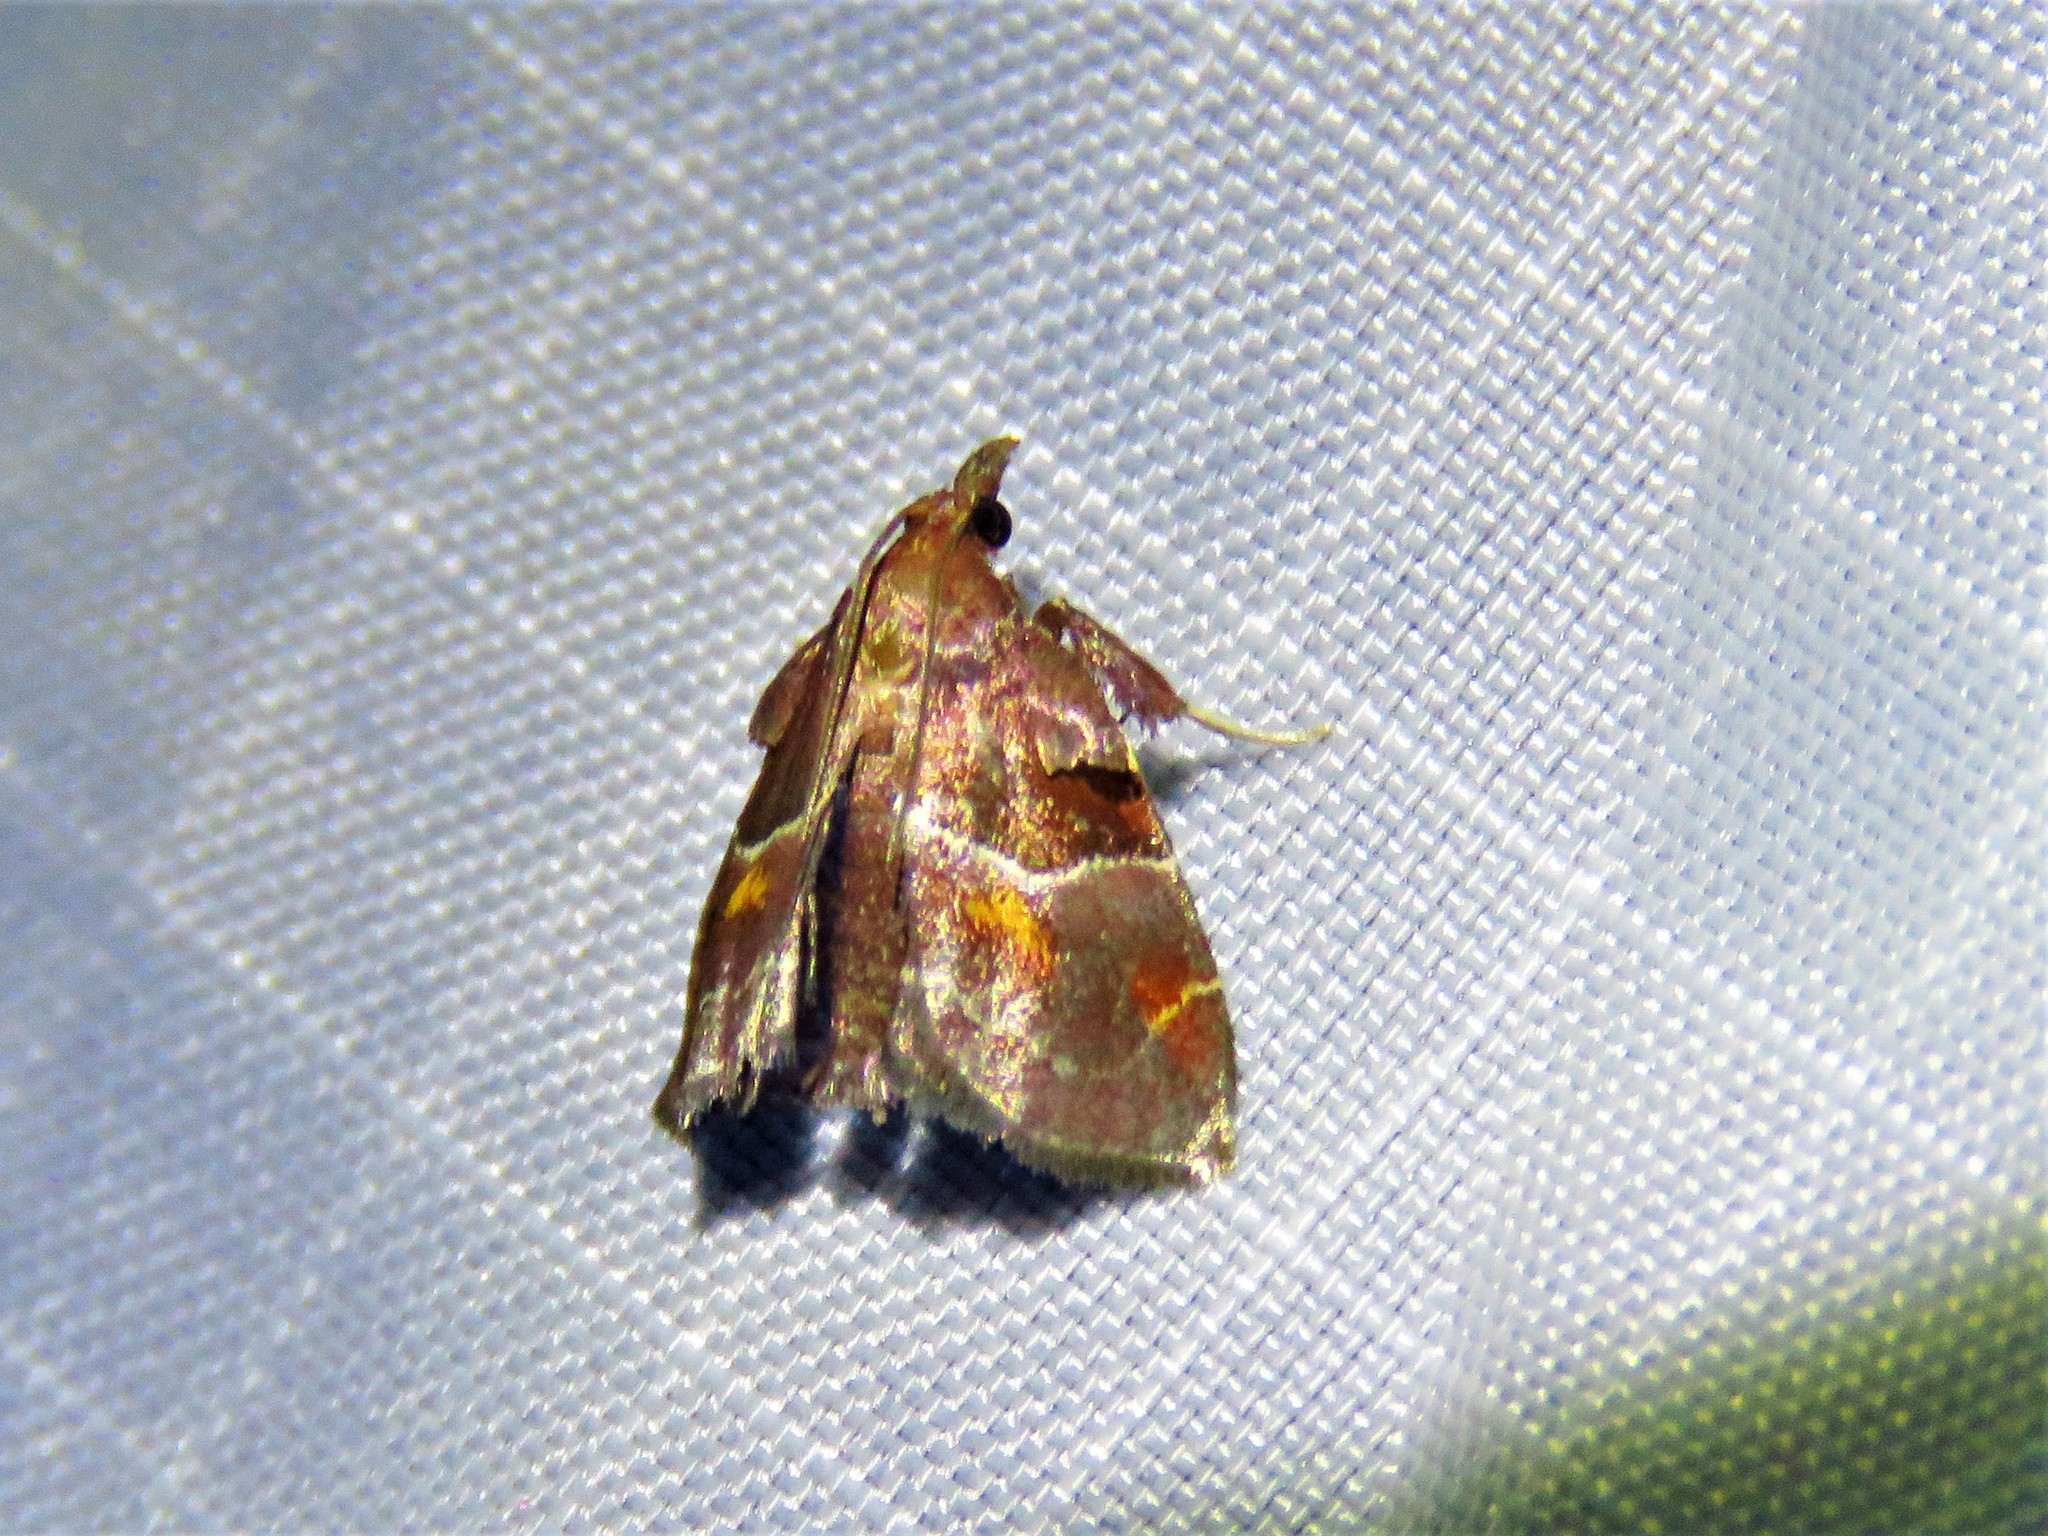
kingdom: Animalia
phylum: Arthropoda
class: Insecta
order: Lepidoptera
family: Pyralidae
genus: Penthesilea
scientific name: Penthesilea sacculalis
